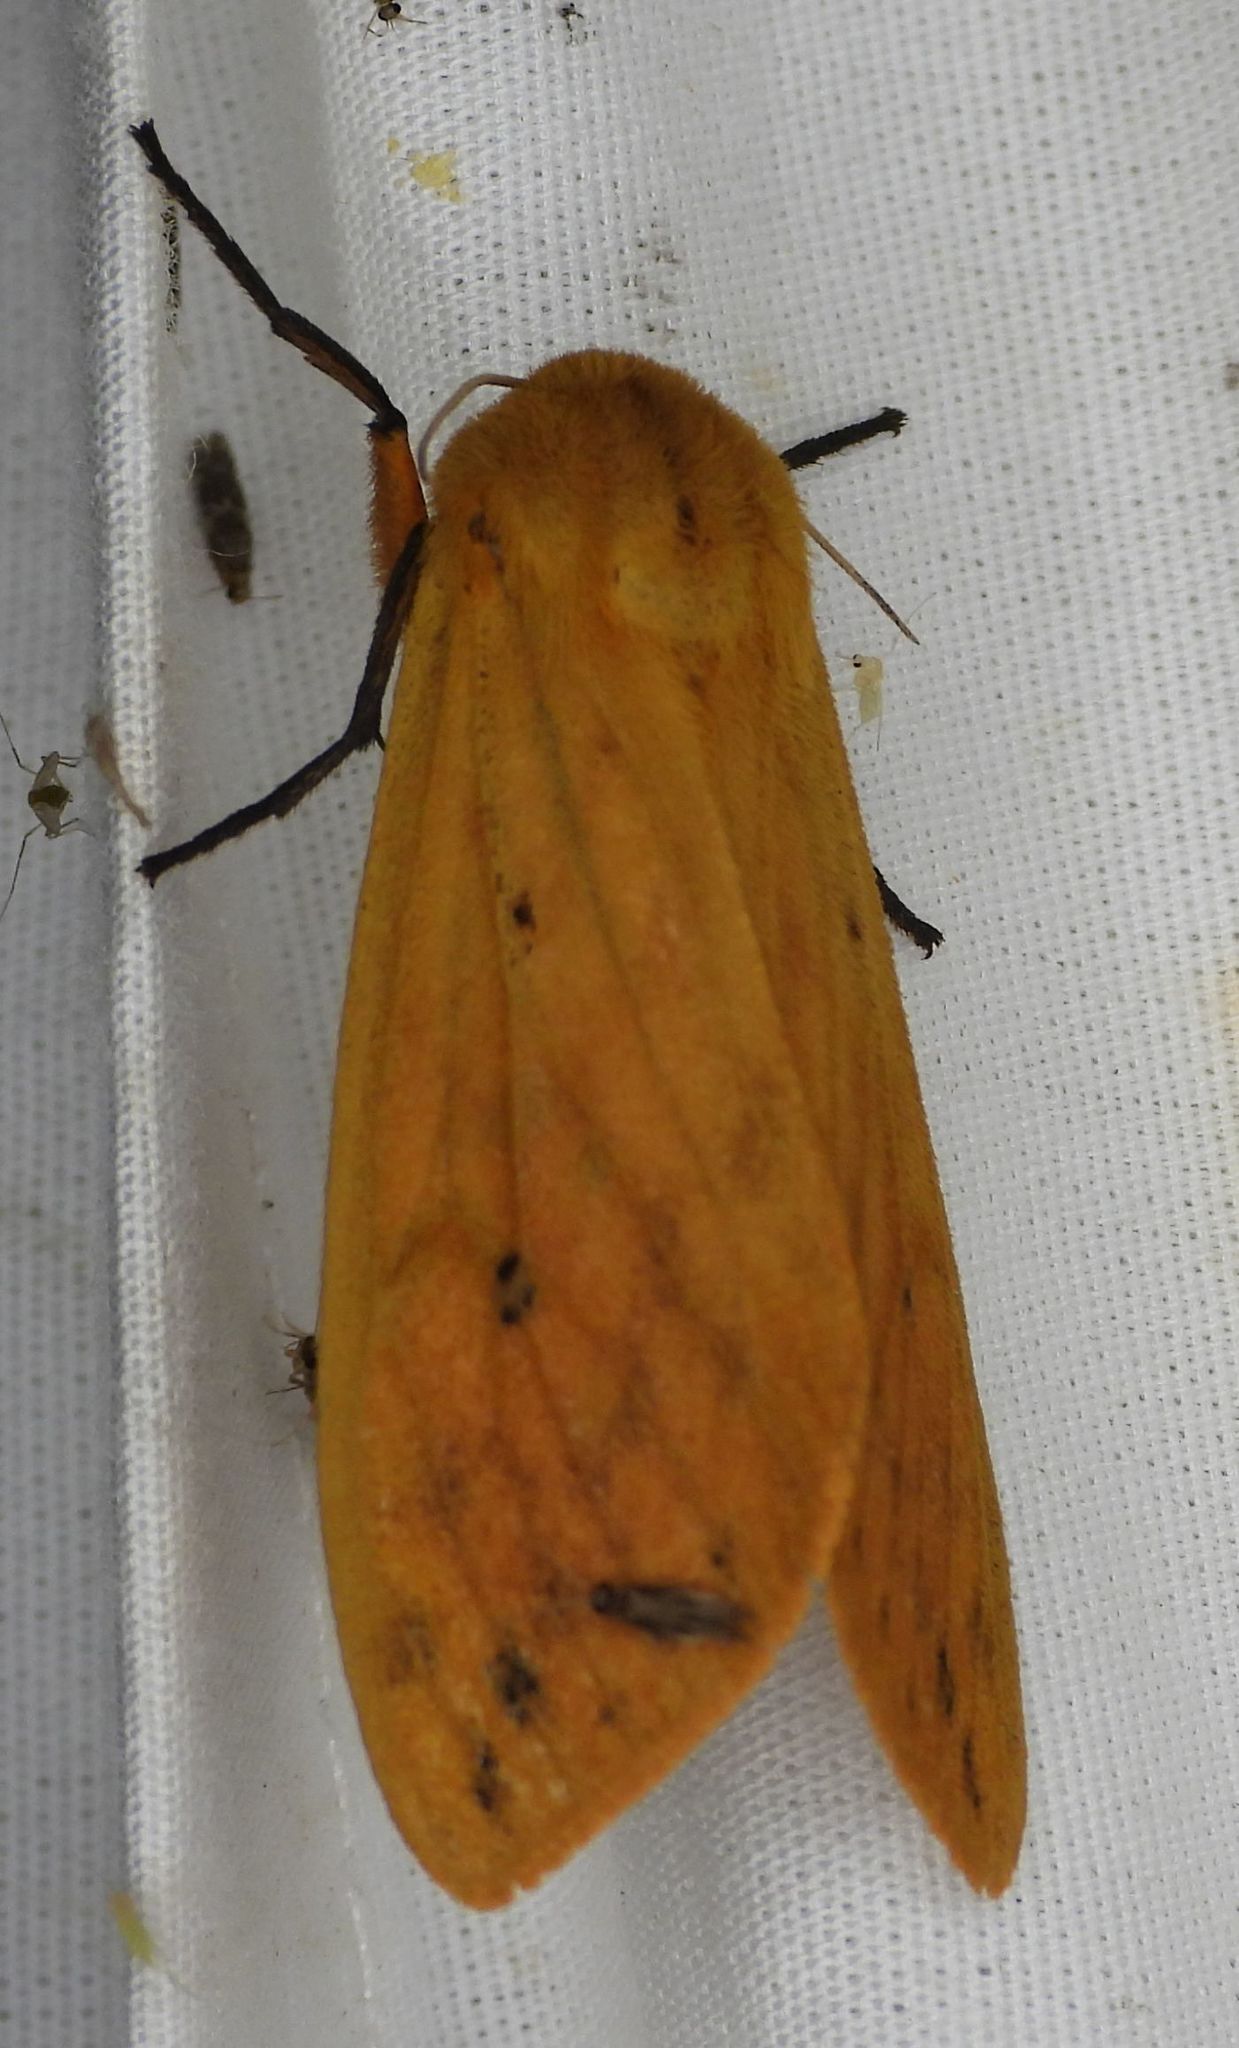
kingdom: Animalia
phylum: Arthropoda
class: Insecta
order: Lepidoptera
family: Erebidae
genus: Pyrrharctia
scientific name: Pyrrharctia isabella
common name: Isabella tiger moth
